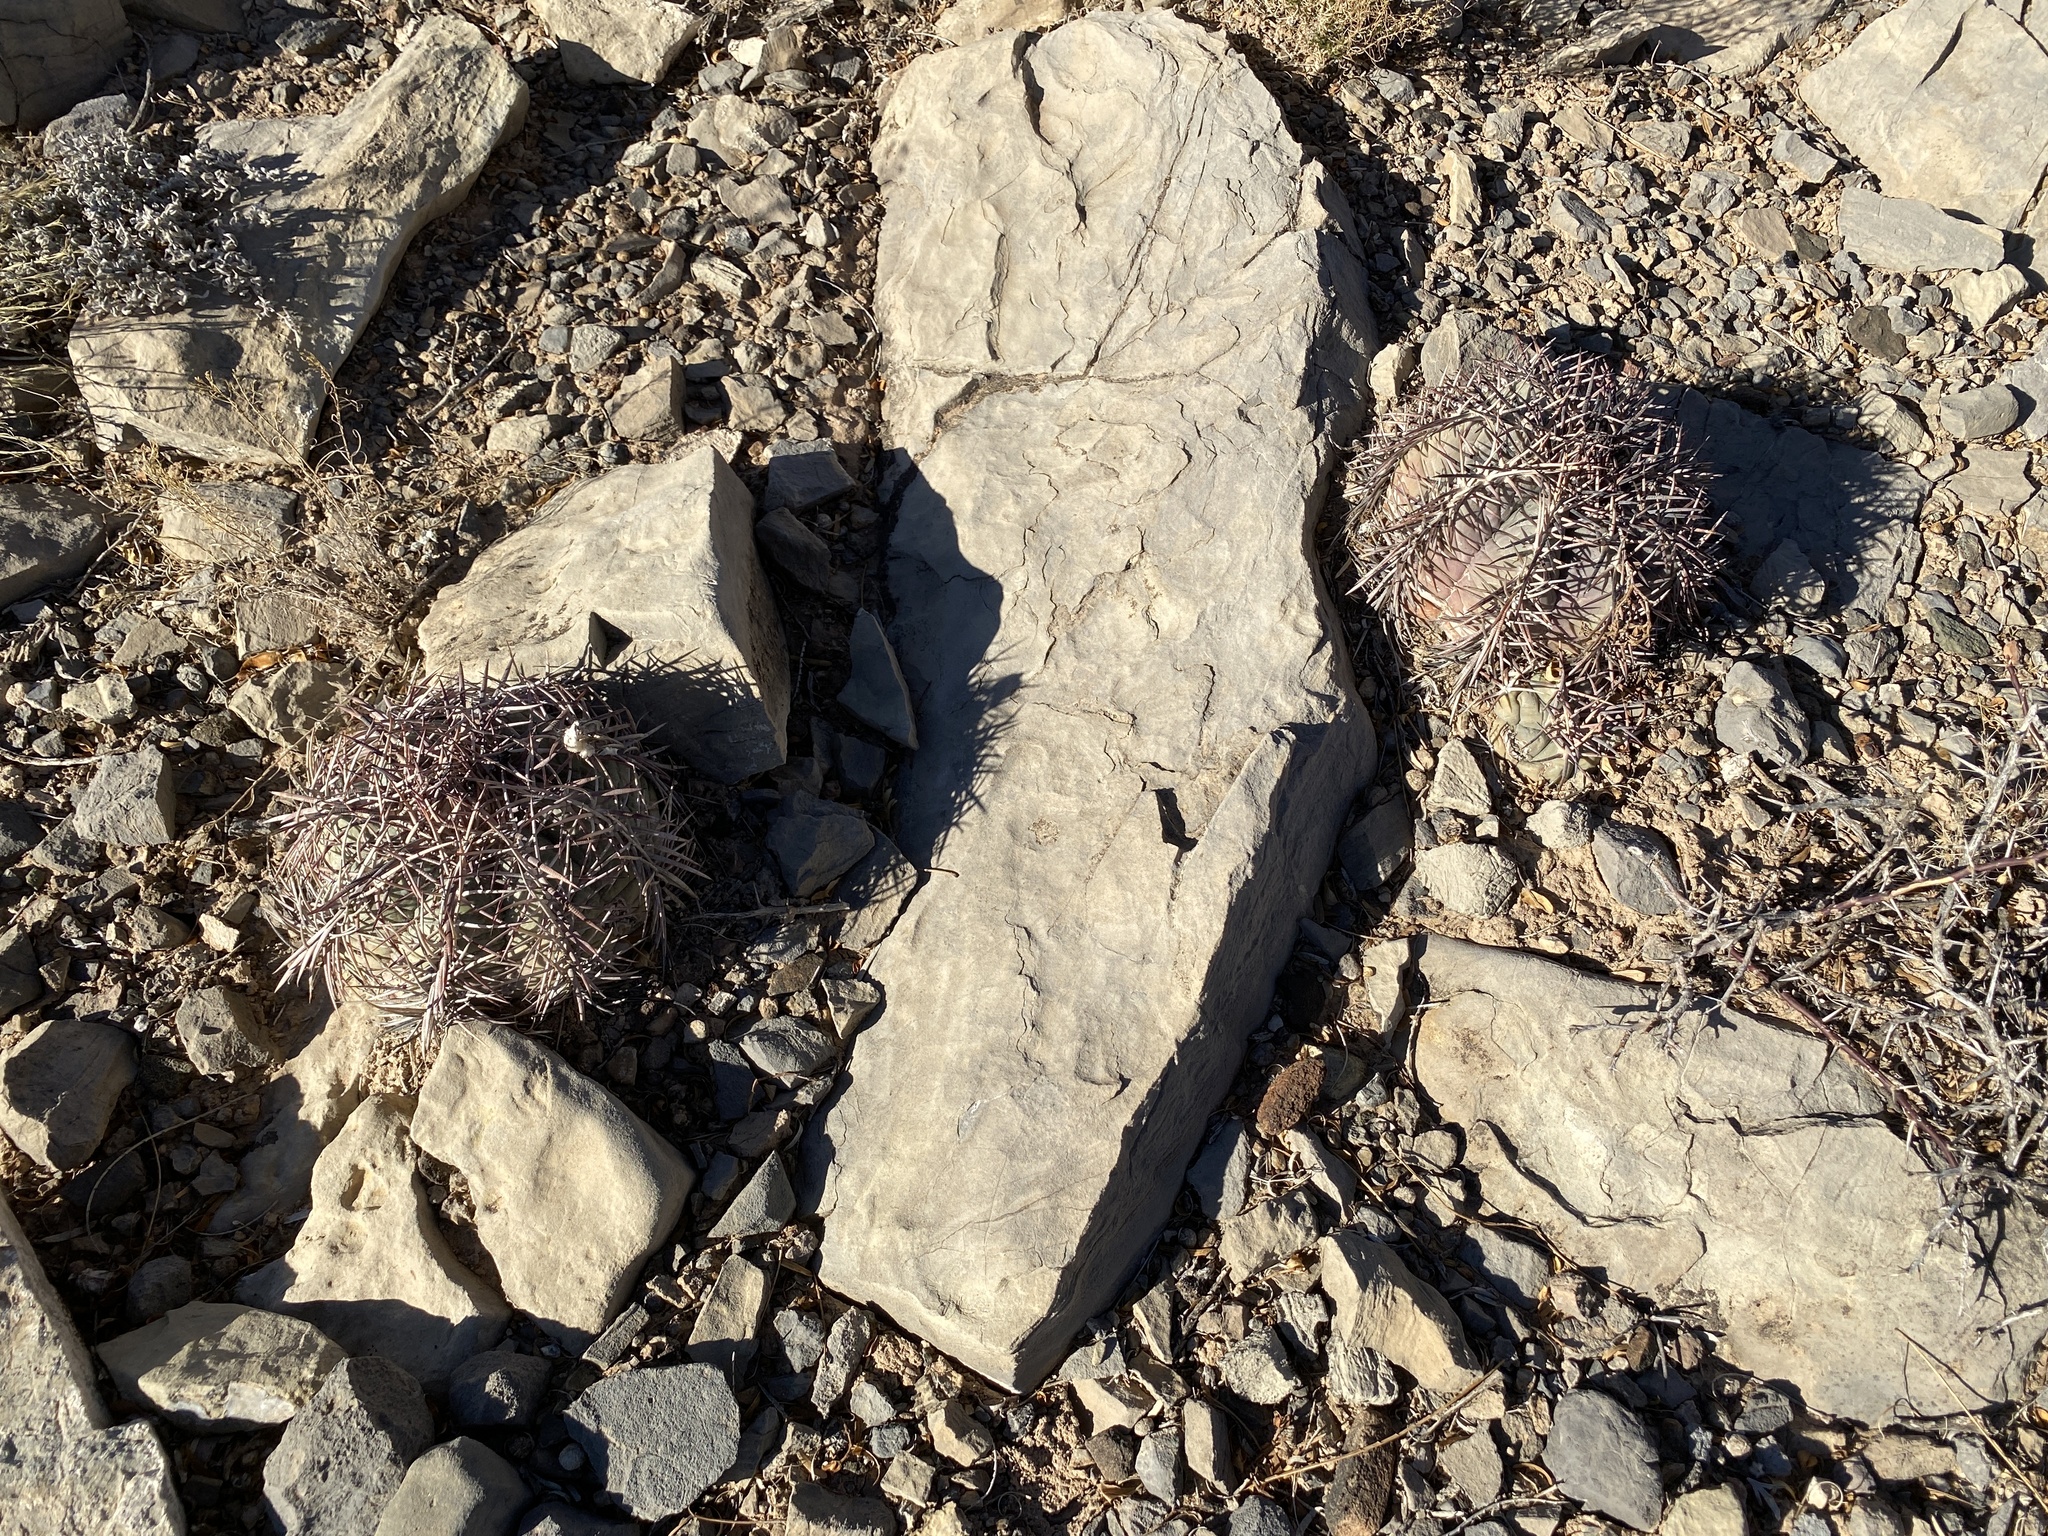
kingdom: Plantae
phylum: Tracheophyta
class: Magnoliopsida
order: Caryophyllales
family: Cactaceae
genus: Echinocactus
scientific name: Echinocactus horizonthalonius
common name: Devilshead
